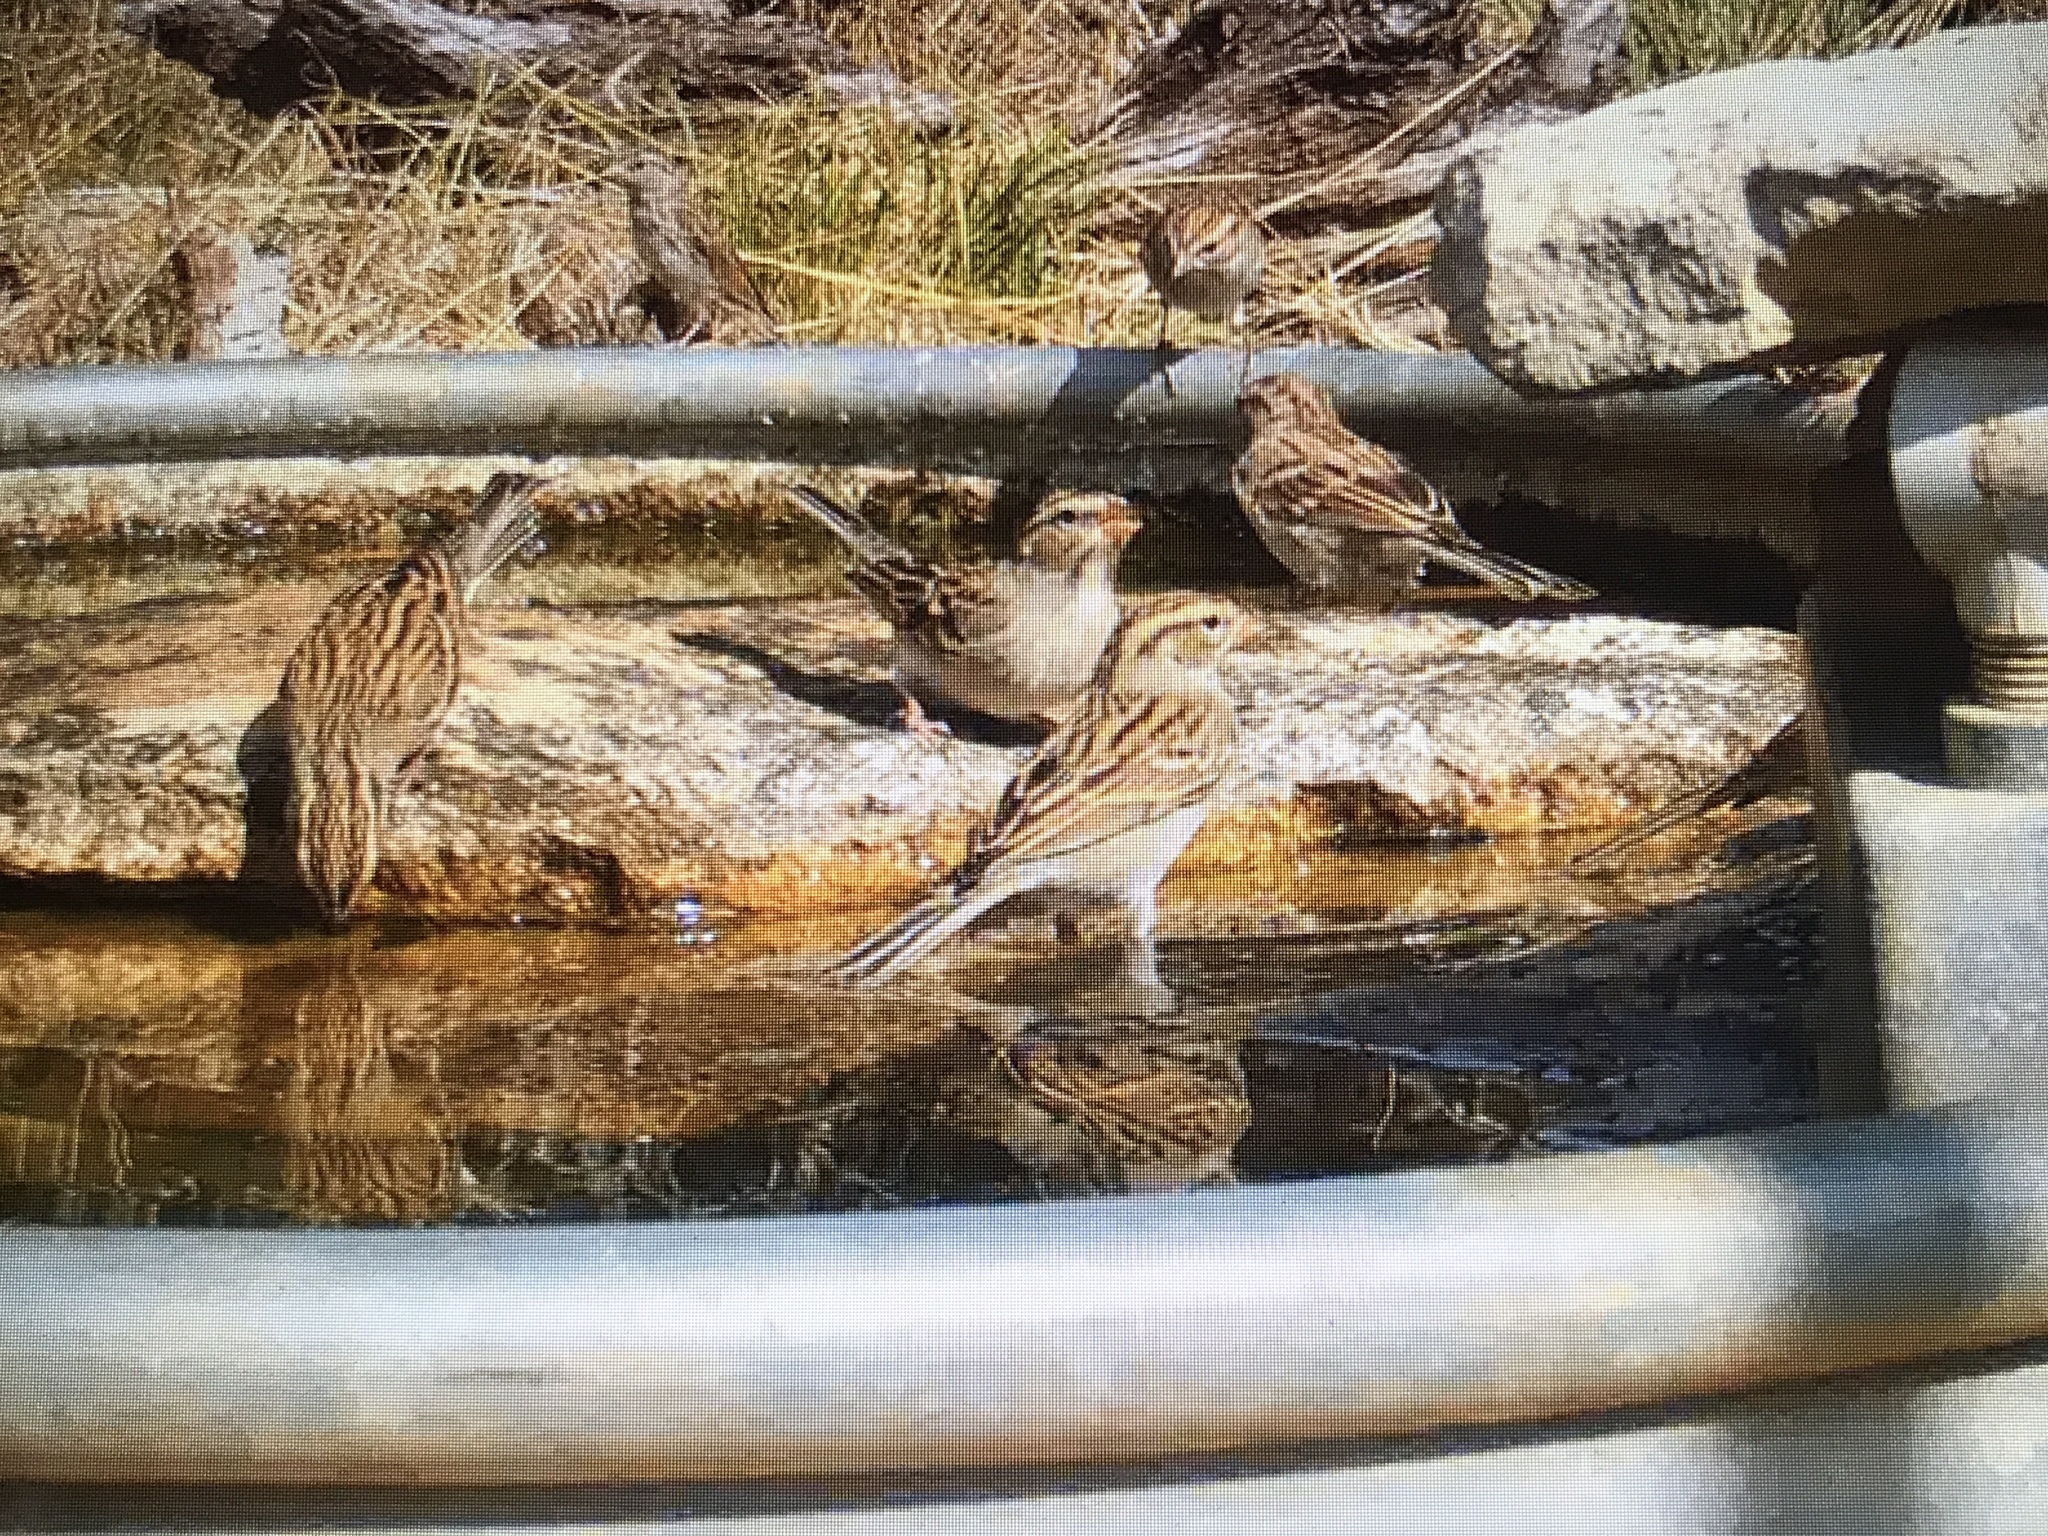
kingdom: Animalia
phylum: Chordata
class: Aves
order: Passeriformes
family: Passerellidae
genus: Spizella
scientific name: Spizella pallida
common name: Clay-colored sparrow
